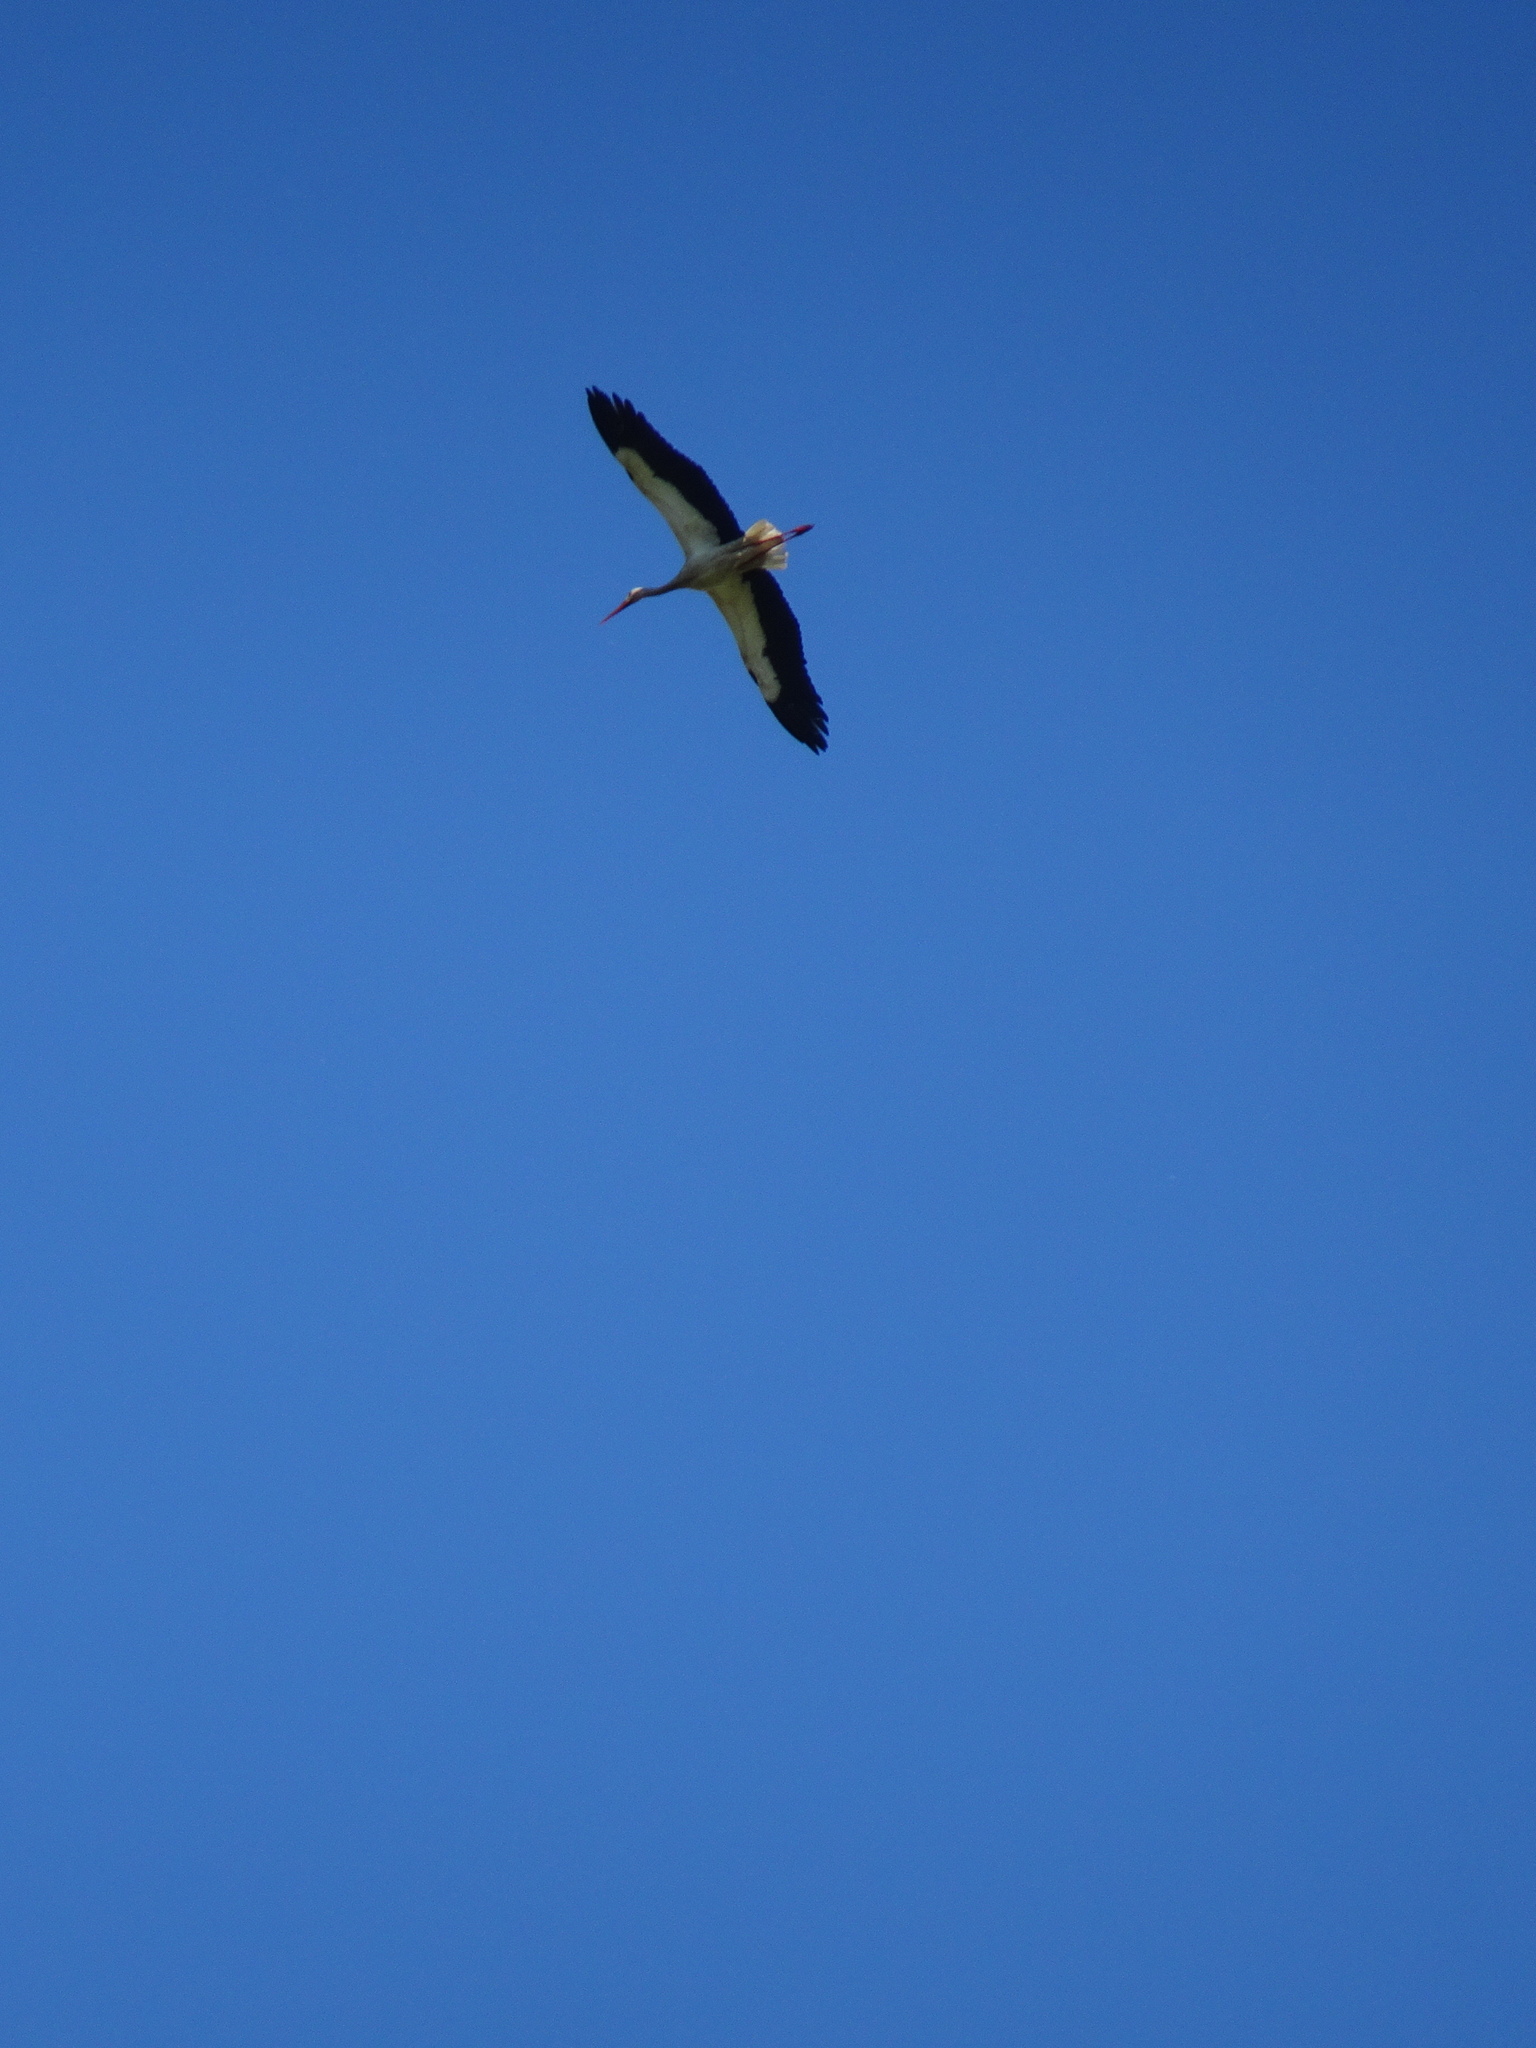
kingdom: Animalia
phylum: Chordata
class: Aves
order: Ciconiiformes
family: Ciconiidae
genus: Ciconia
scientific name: Ciconia ciconia
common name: White stork
